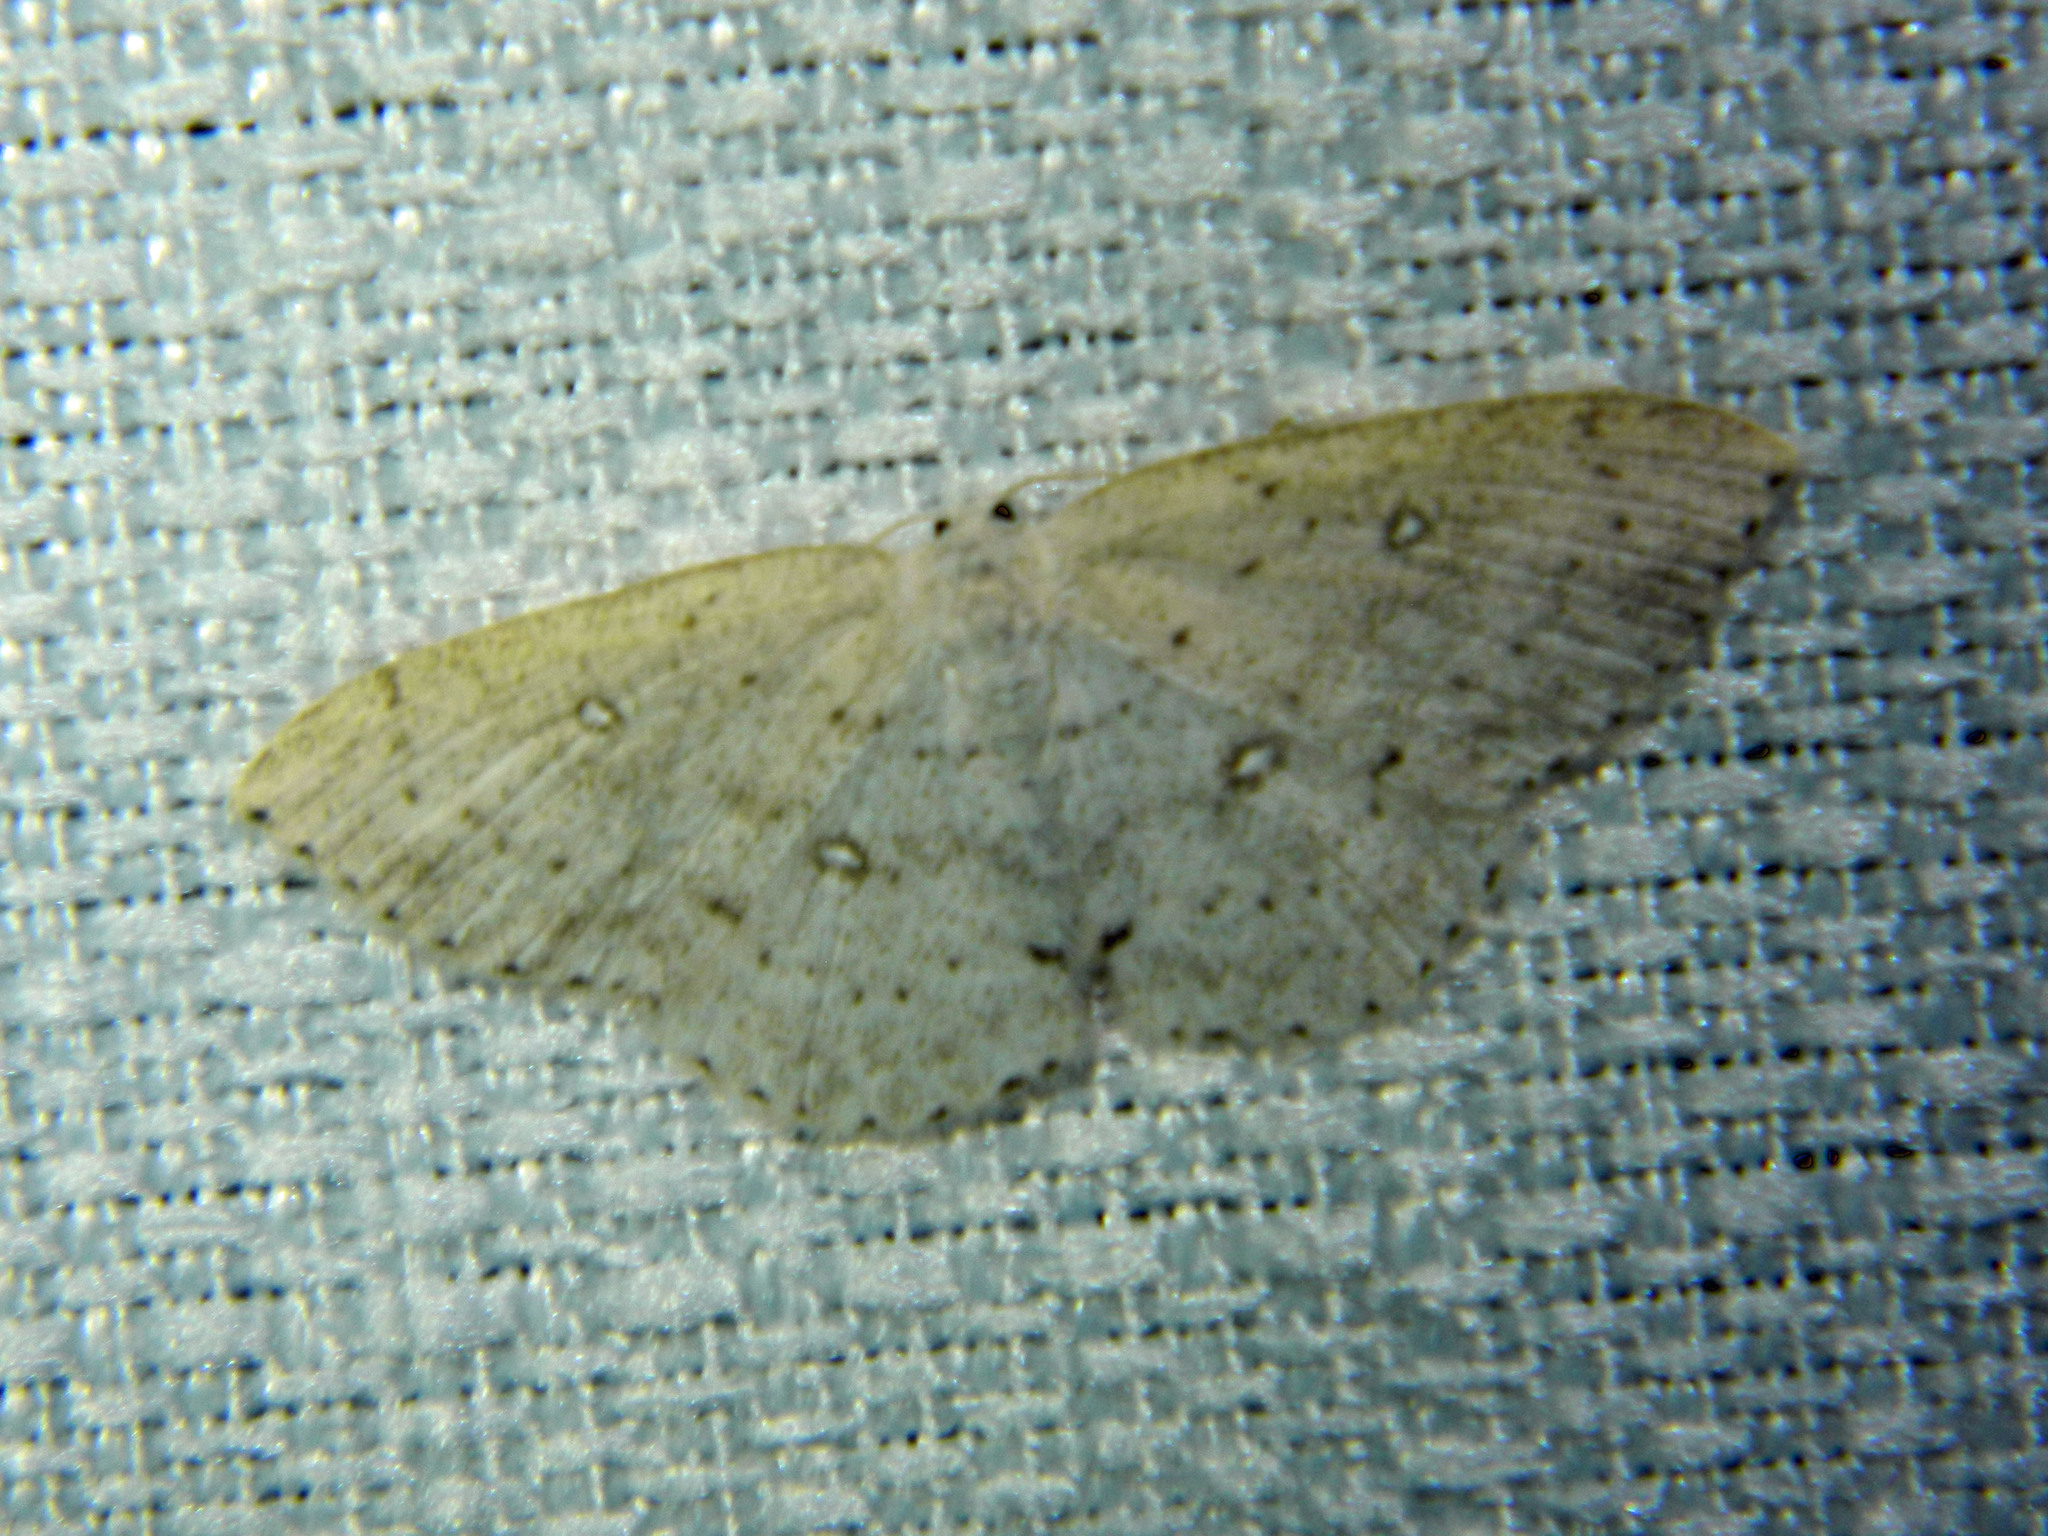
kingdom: Animalia
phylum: Arthropoda
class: Insecta
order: Lepidoptera
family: Geometridae
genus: Cyclophora
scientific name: Cyclophora pendulinaria
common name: Sweet fern geometer
